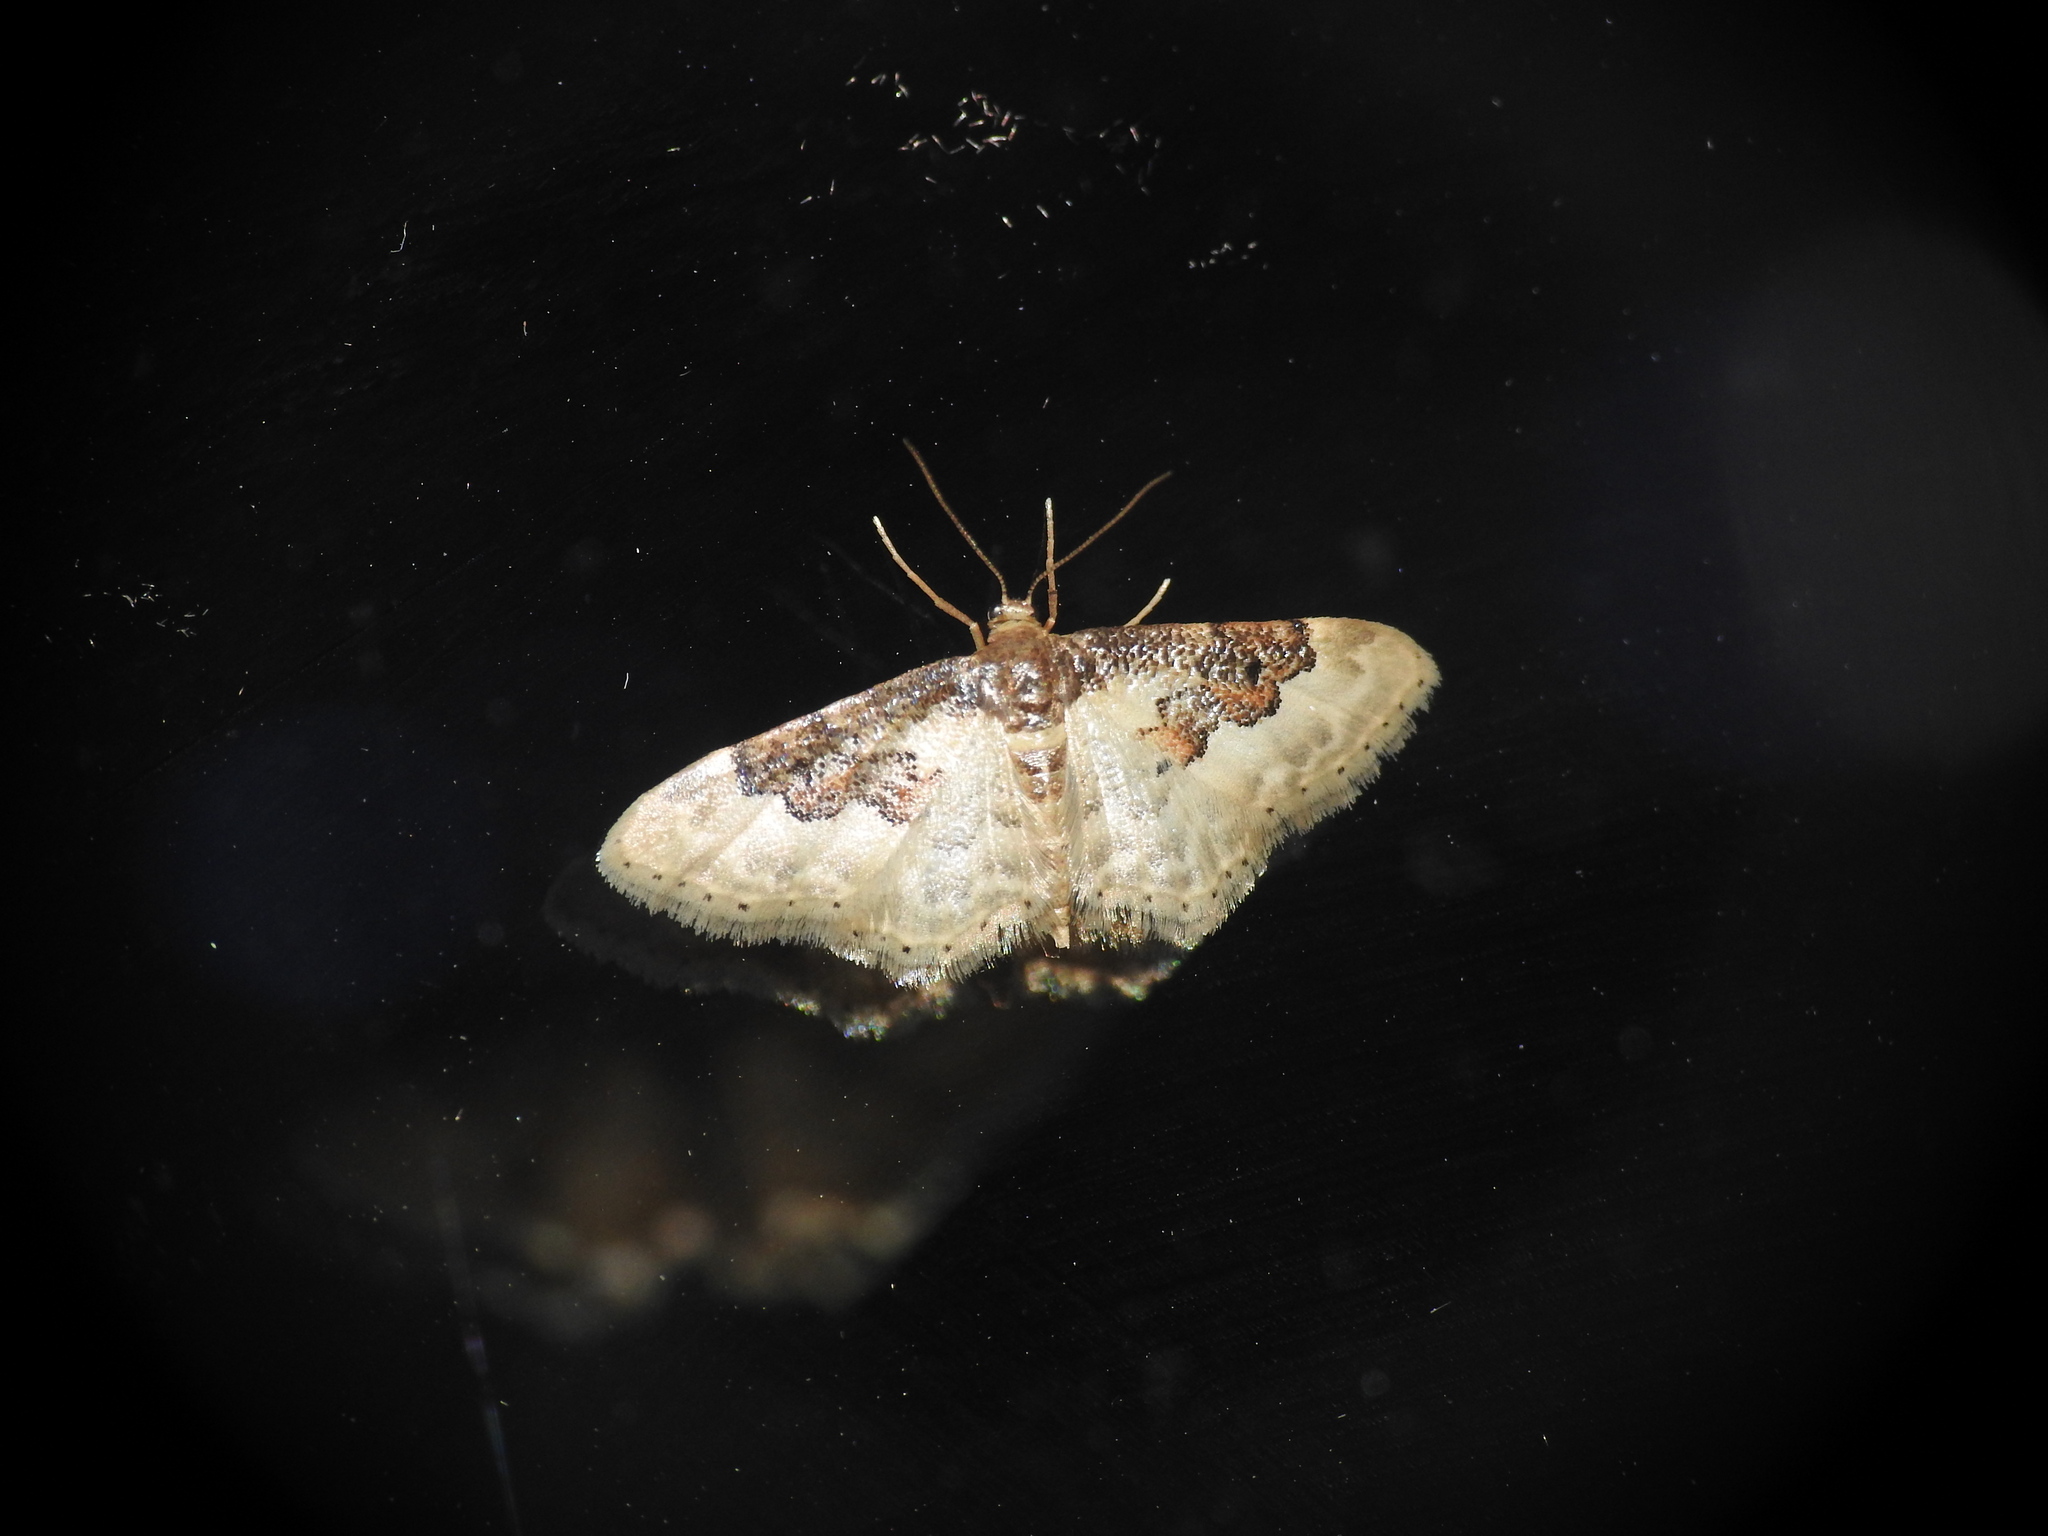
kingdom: Animalia
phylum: Arthropoda
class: Insecta
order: Lepidoptera
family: Geometridae
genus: Idaea
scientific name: Idaea rusticata
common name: Least carpet
